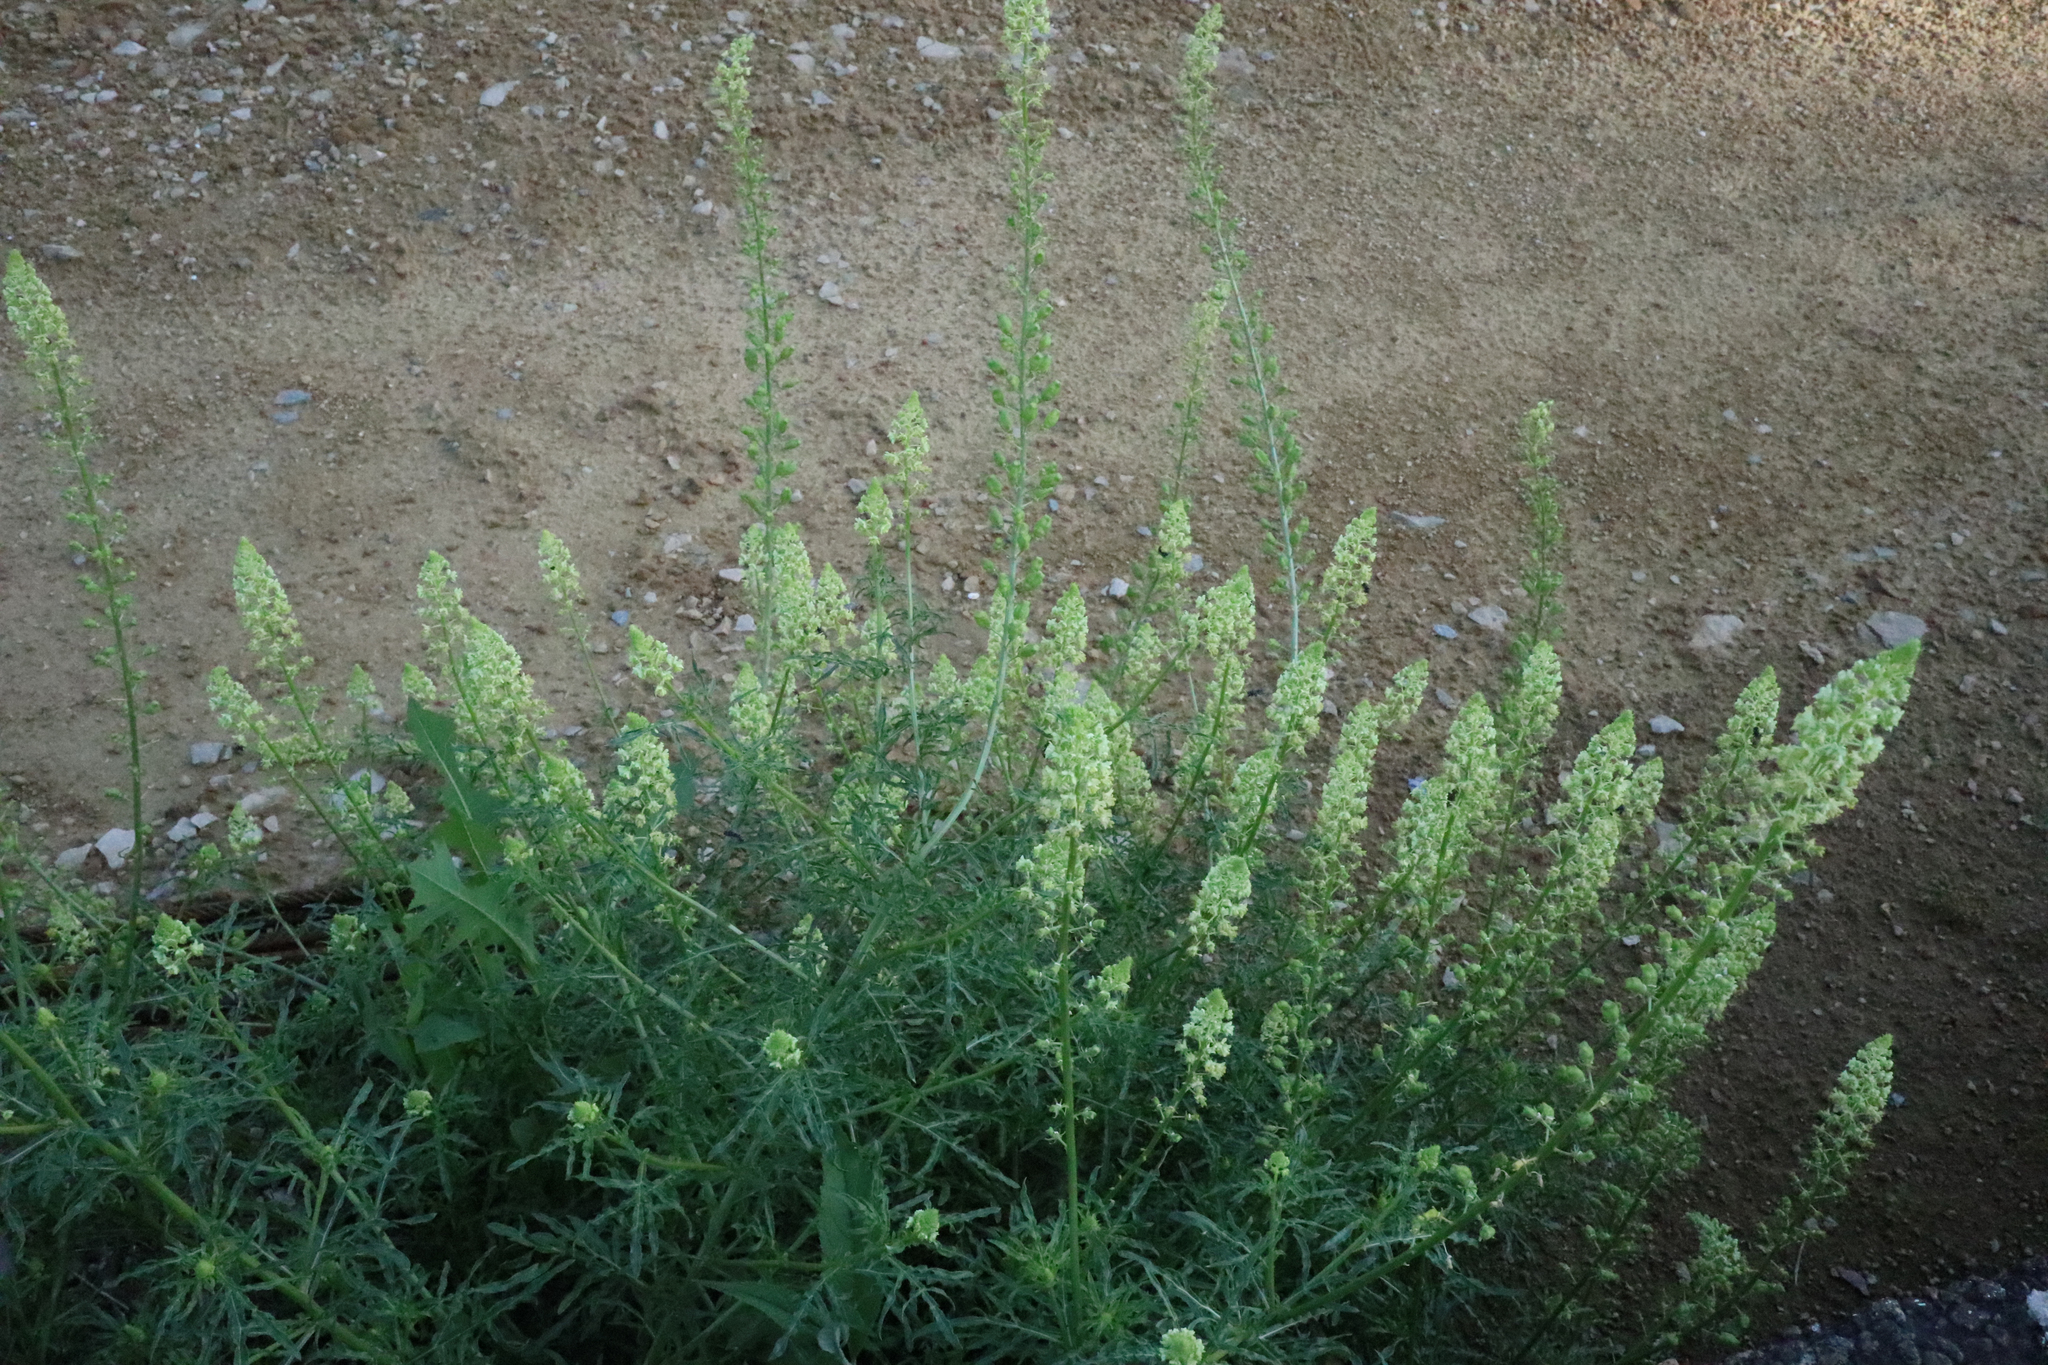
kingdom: Plantae
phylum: Tracheophyta
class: Magnoliopsida
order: Brassicales
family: Resedaceae
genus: Reseda
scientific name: Reseda lutea
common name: Wild mignonette
